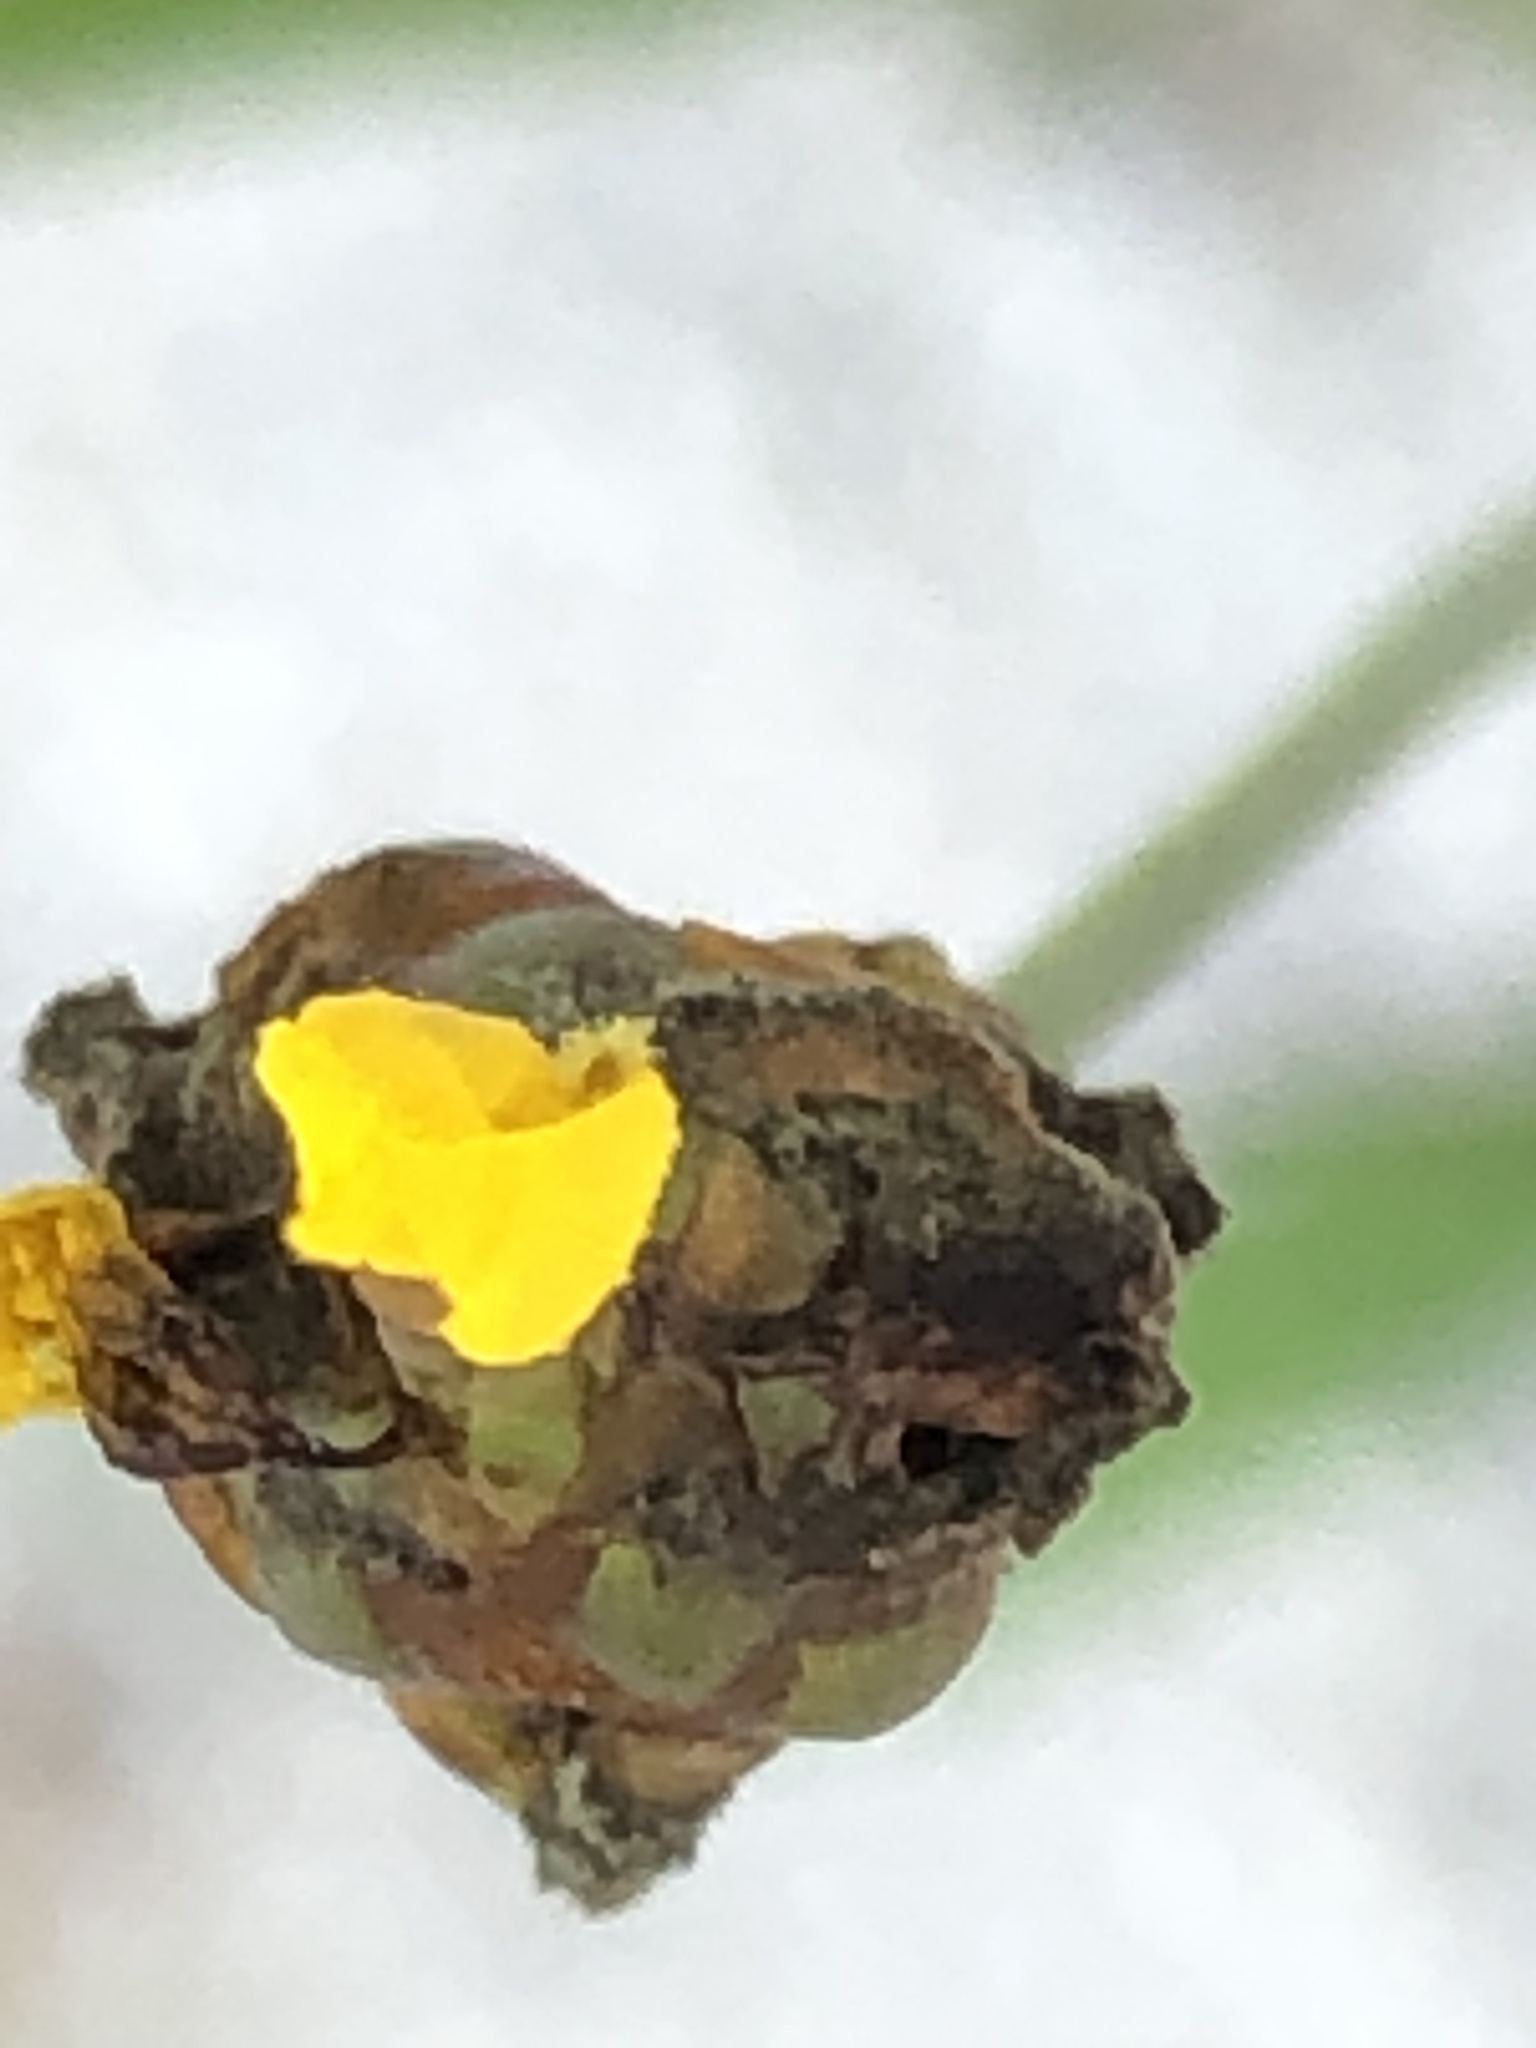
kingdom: Plantae
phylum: Tracheophyta
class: Liliopsida
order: Poales
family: Xyridaceae
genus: Xyris
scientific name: Xyris difformis
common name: Bog yellow-eyed-grass
